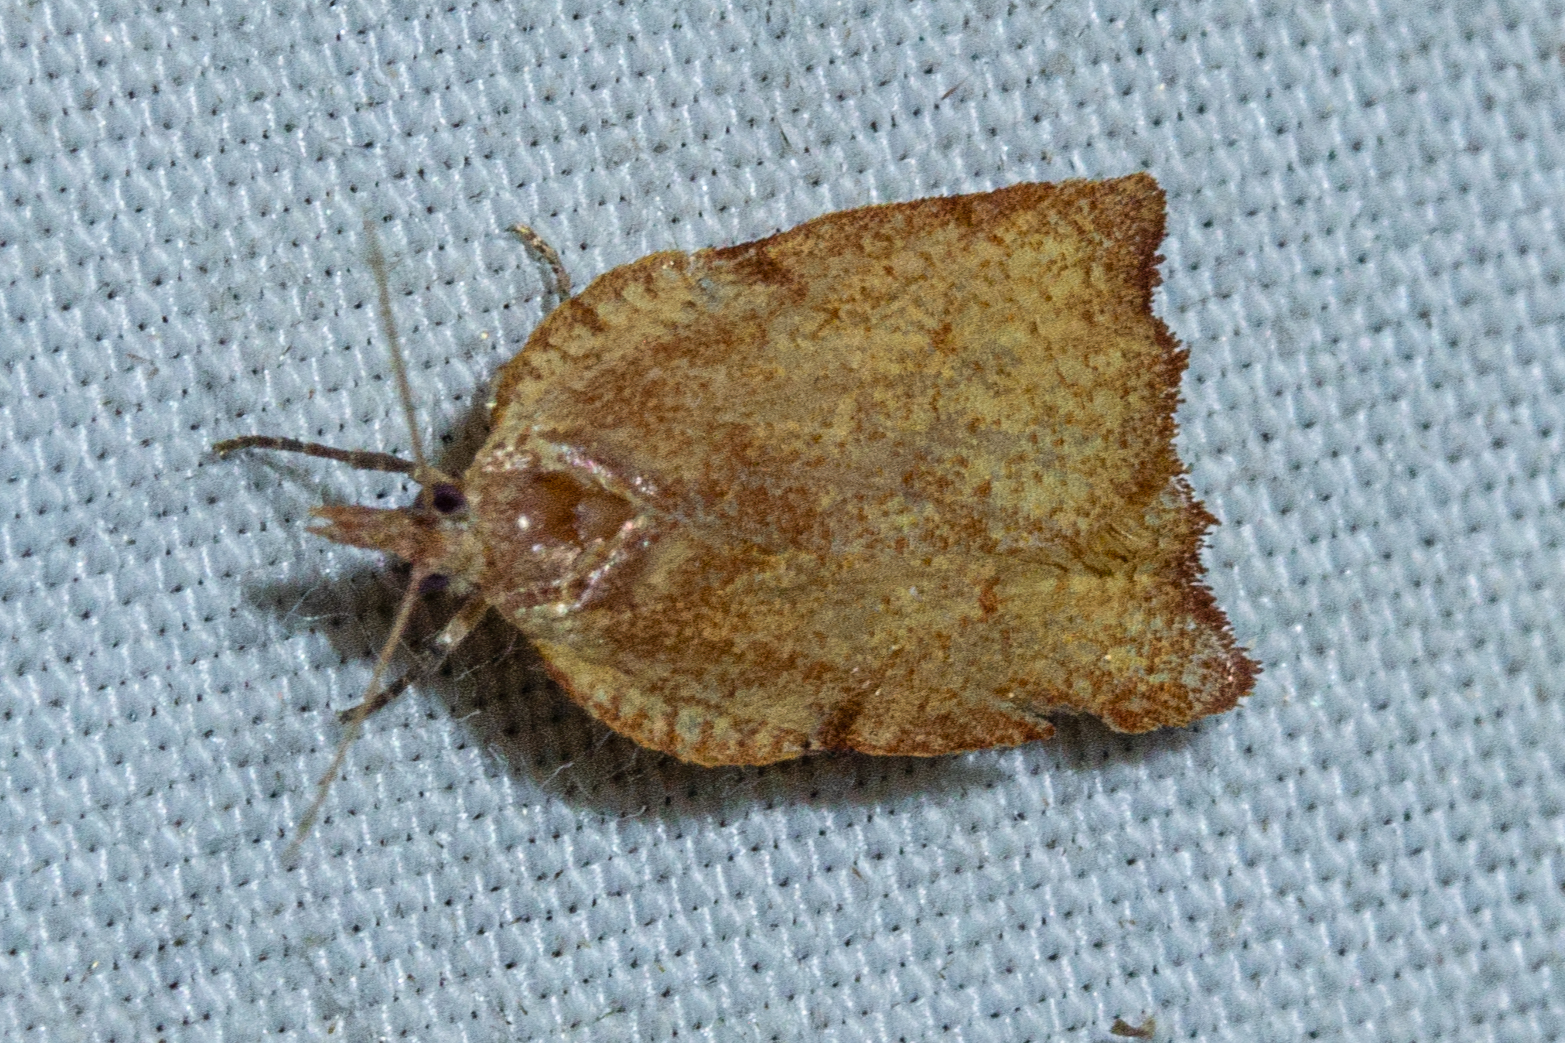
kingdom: Animalia
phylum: Arthropoda
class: Insecta
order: Lepidoptera
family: Tortricidae
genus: Apoctena
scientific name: Apoctena flavescens
